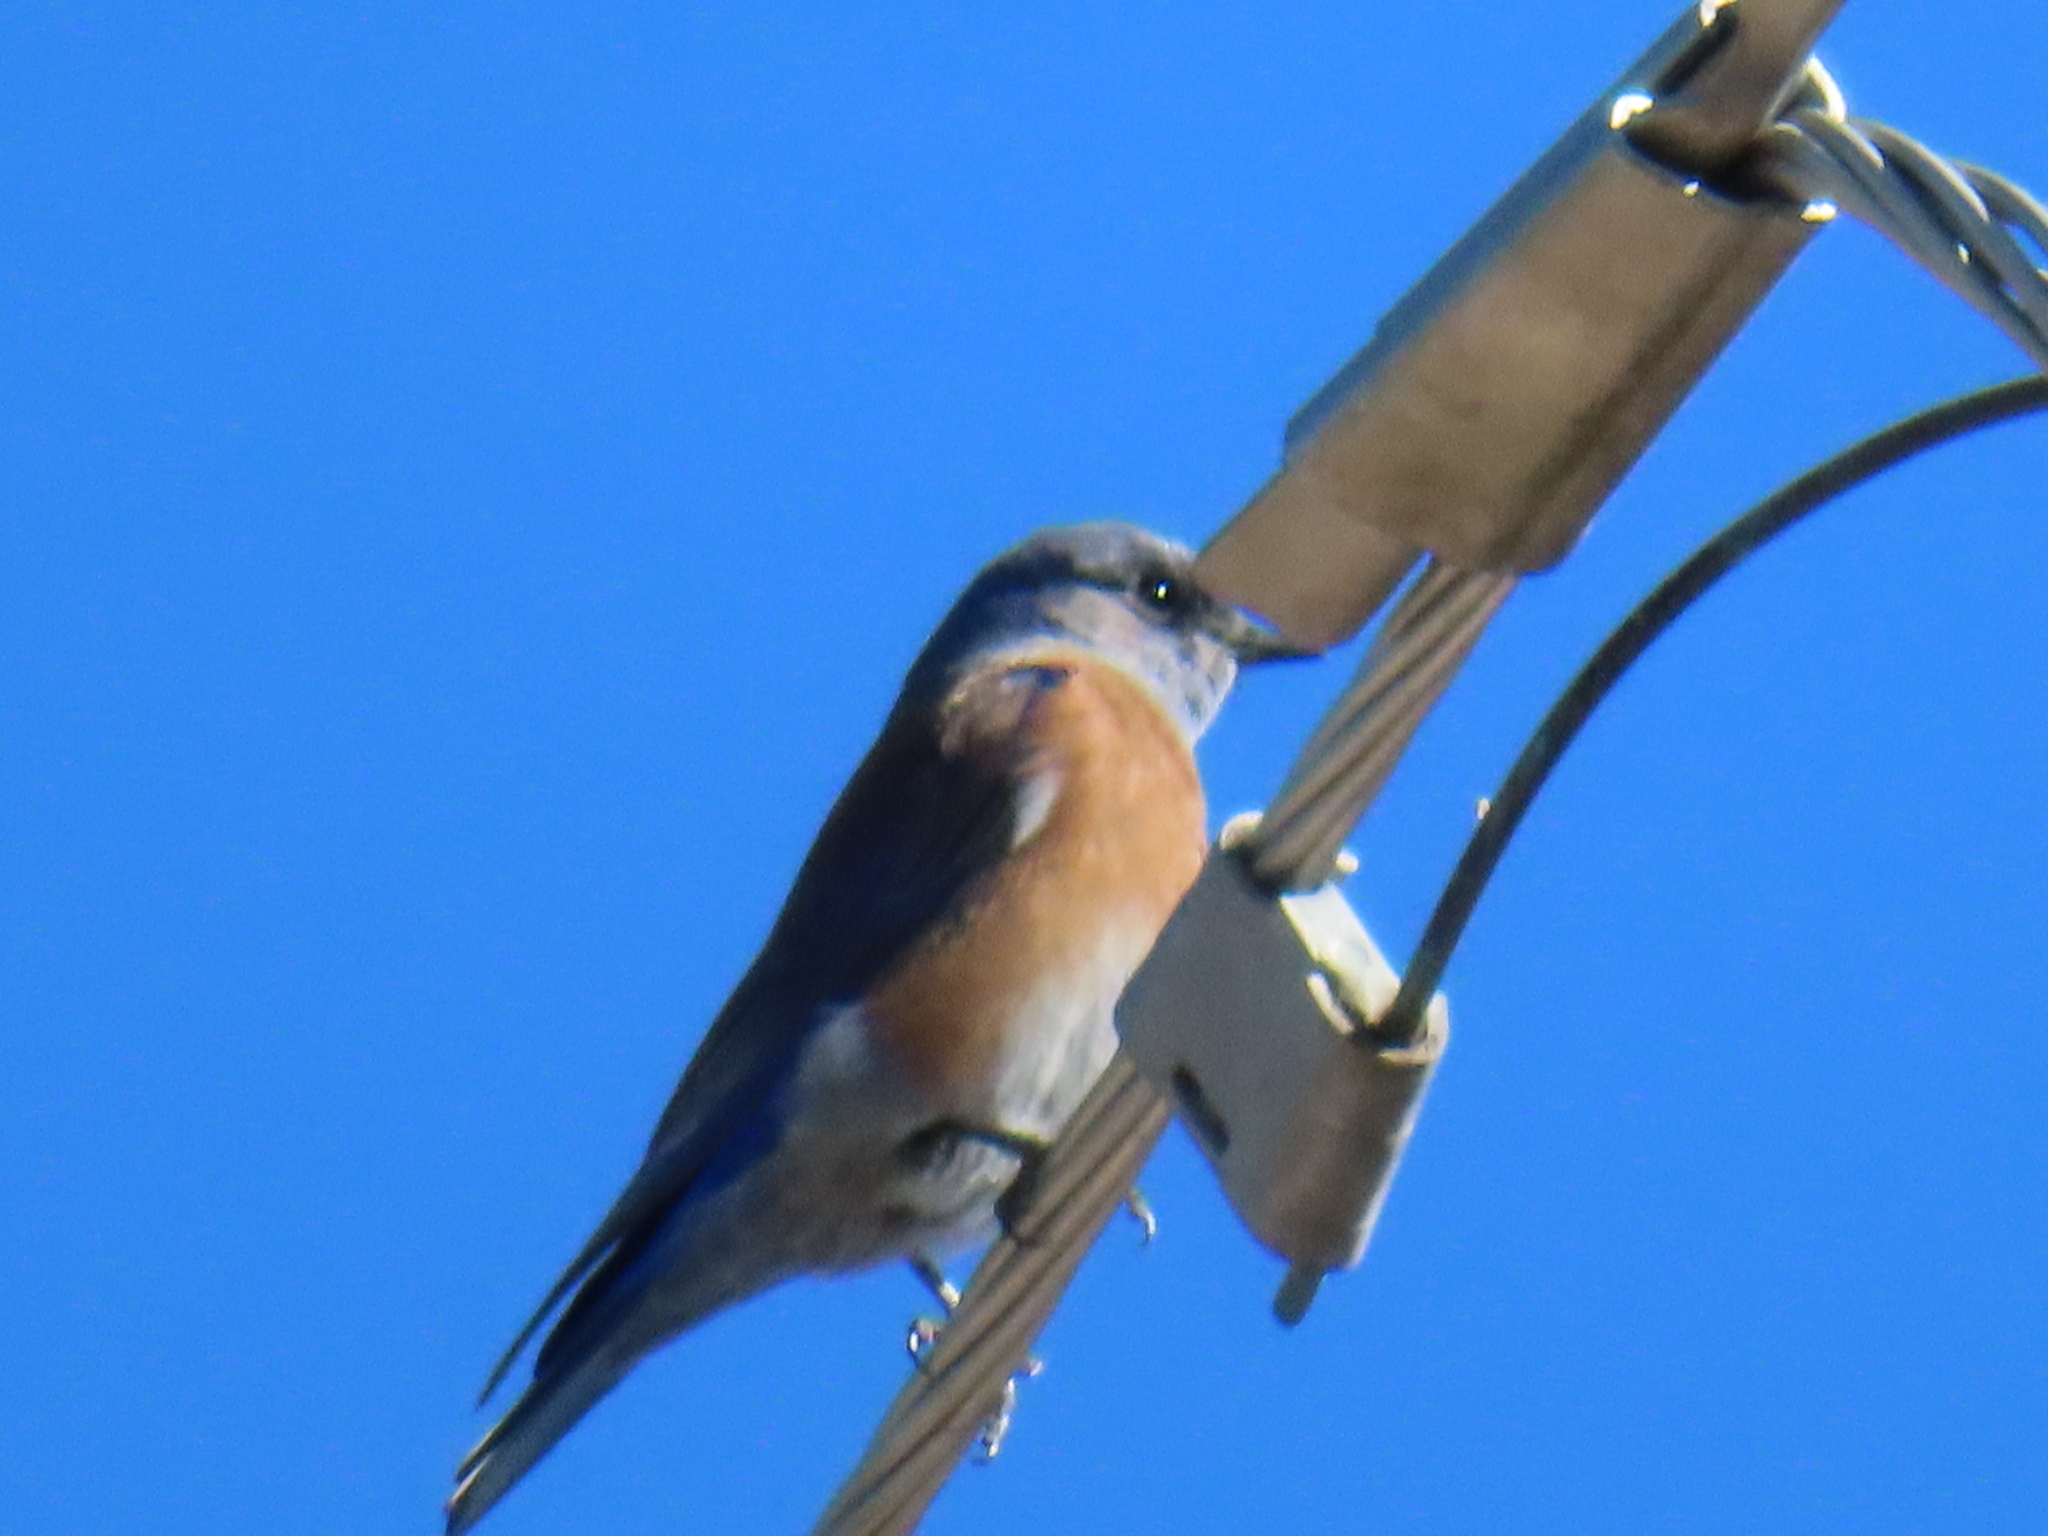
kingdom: Animalia
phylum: Chordata
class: Aves
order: Passeriformes
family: Turdidae
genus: Sialia
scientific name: Sialia sialis
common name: Eastern bluebird
